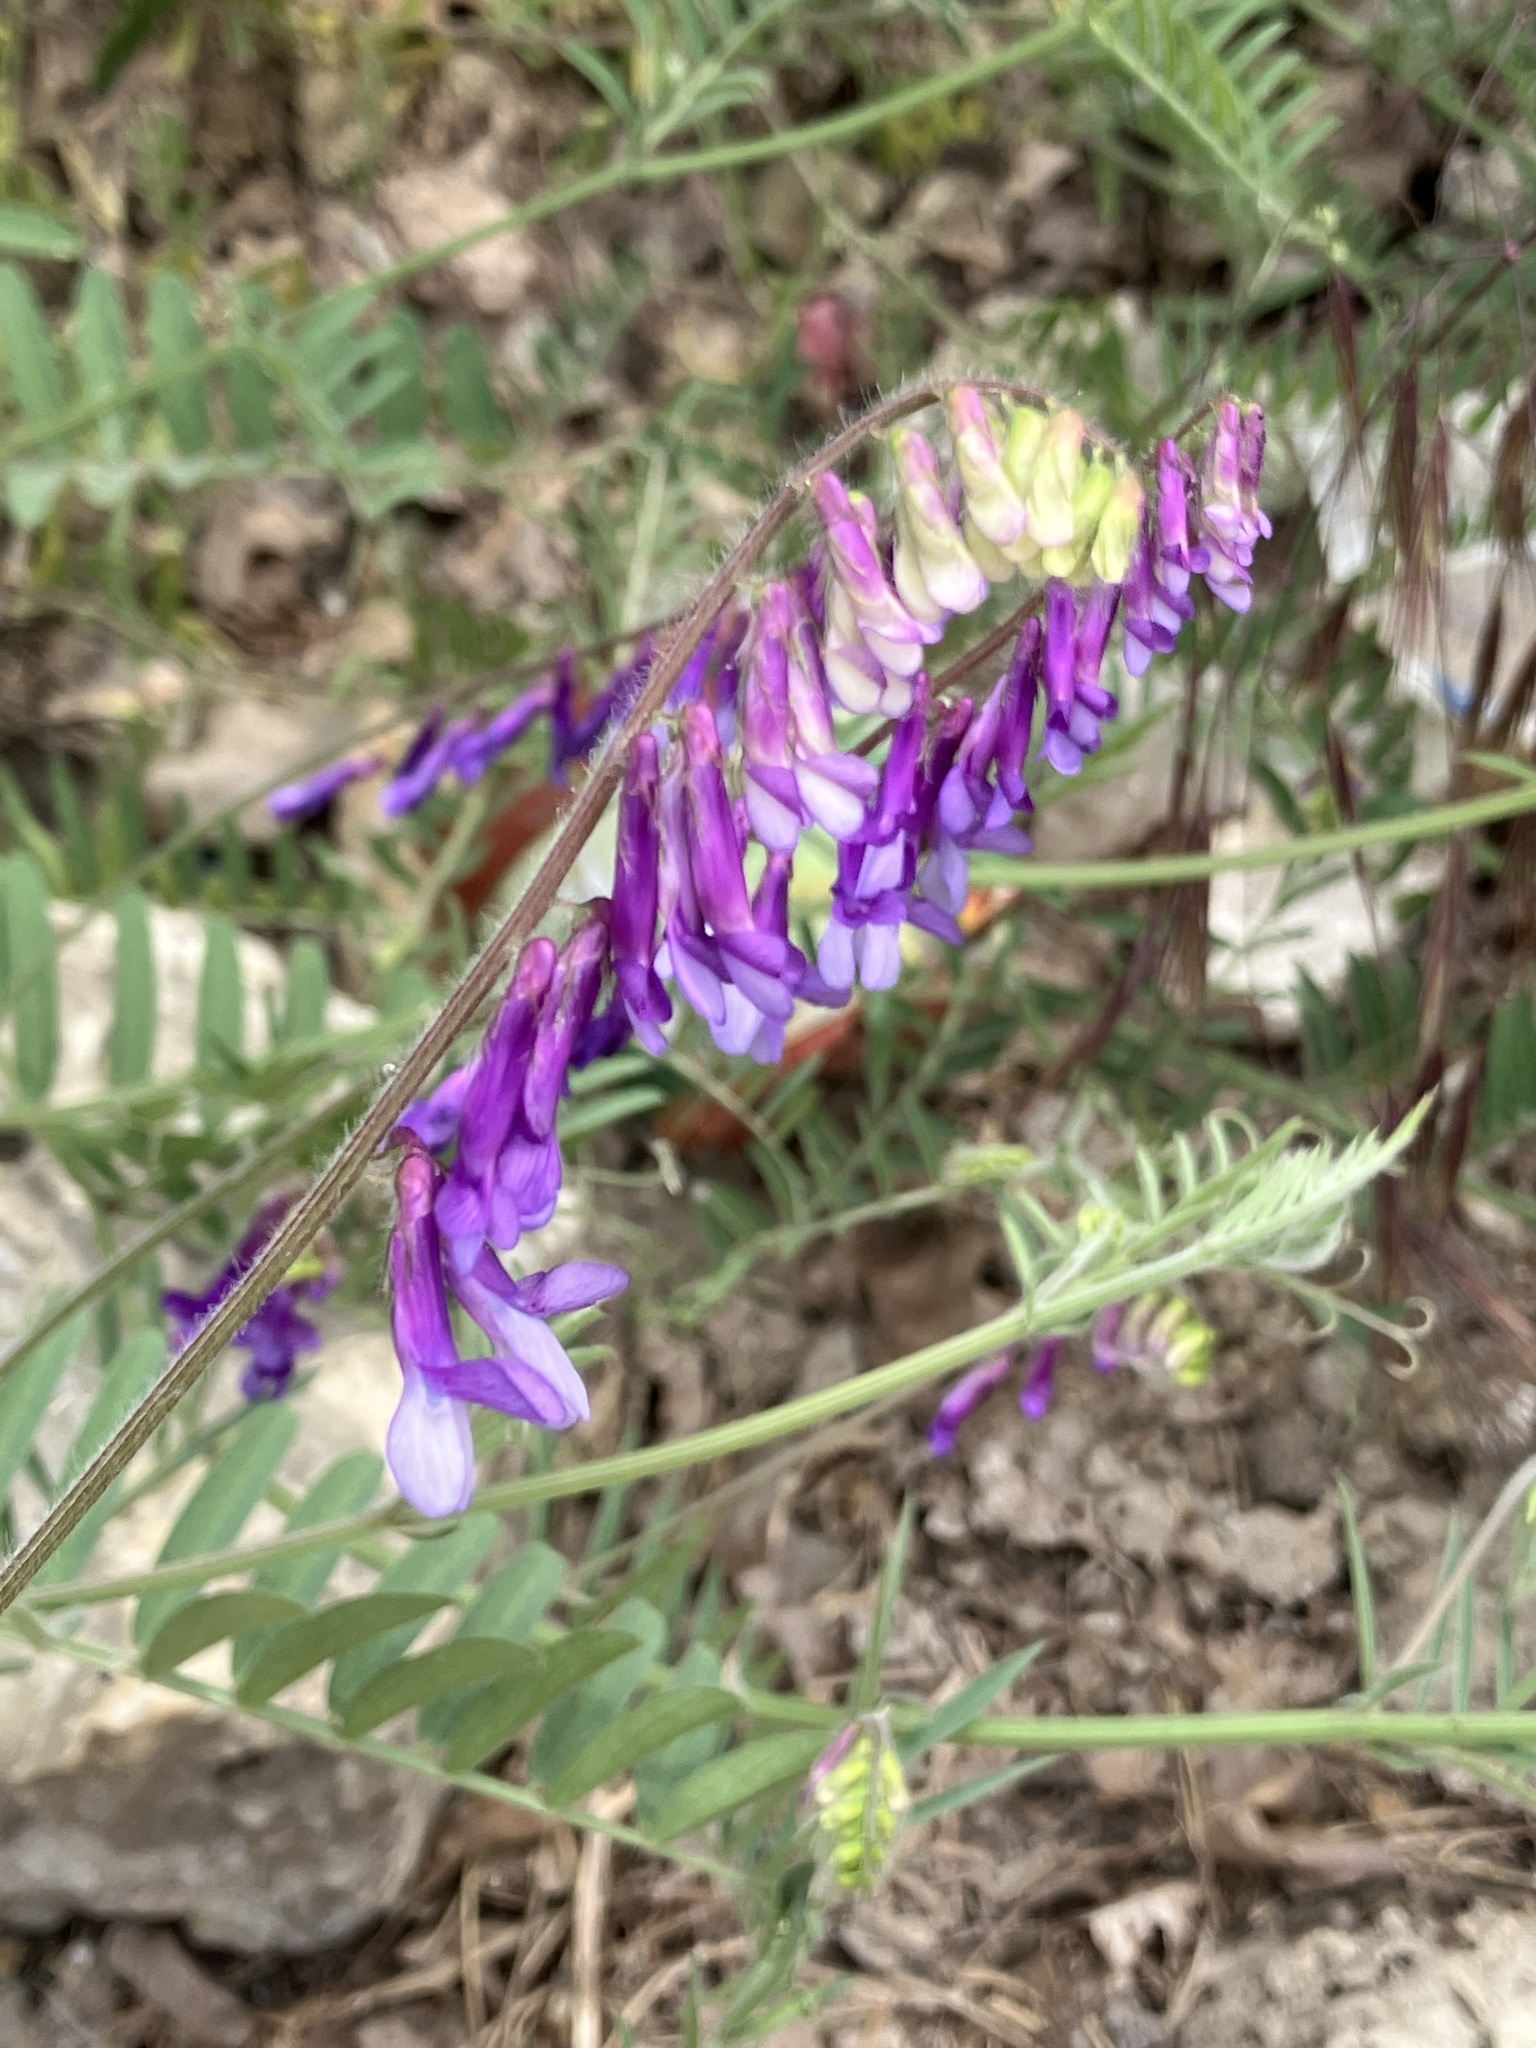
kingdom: Plantae
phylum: Tracheophyta
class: Magnoliopsida
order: Fabales
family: Fabaceae
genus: Vicia
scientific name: Vicia villosa
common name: Fodder vetch
